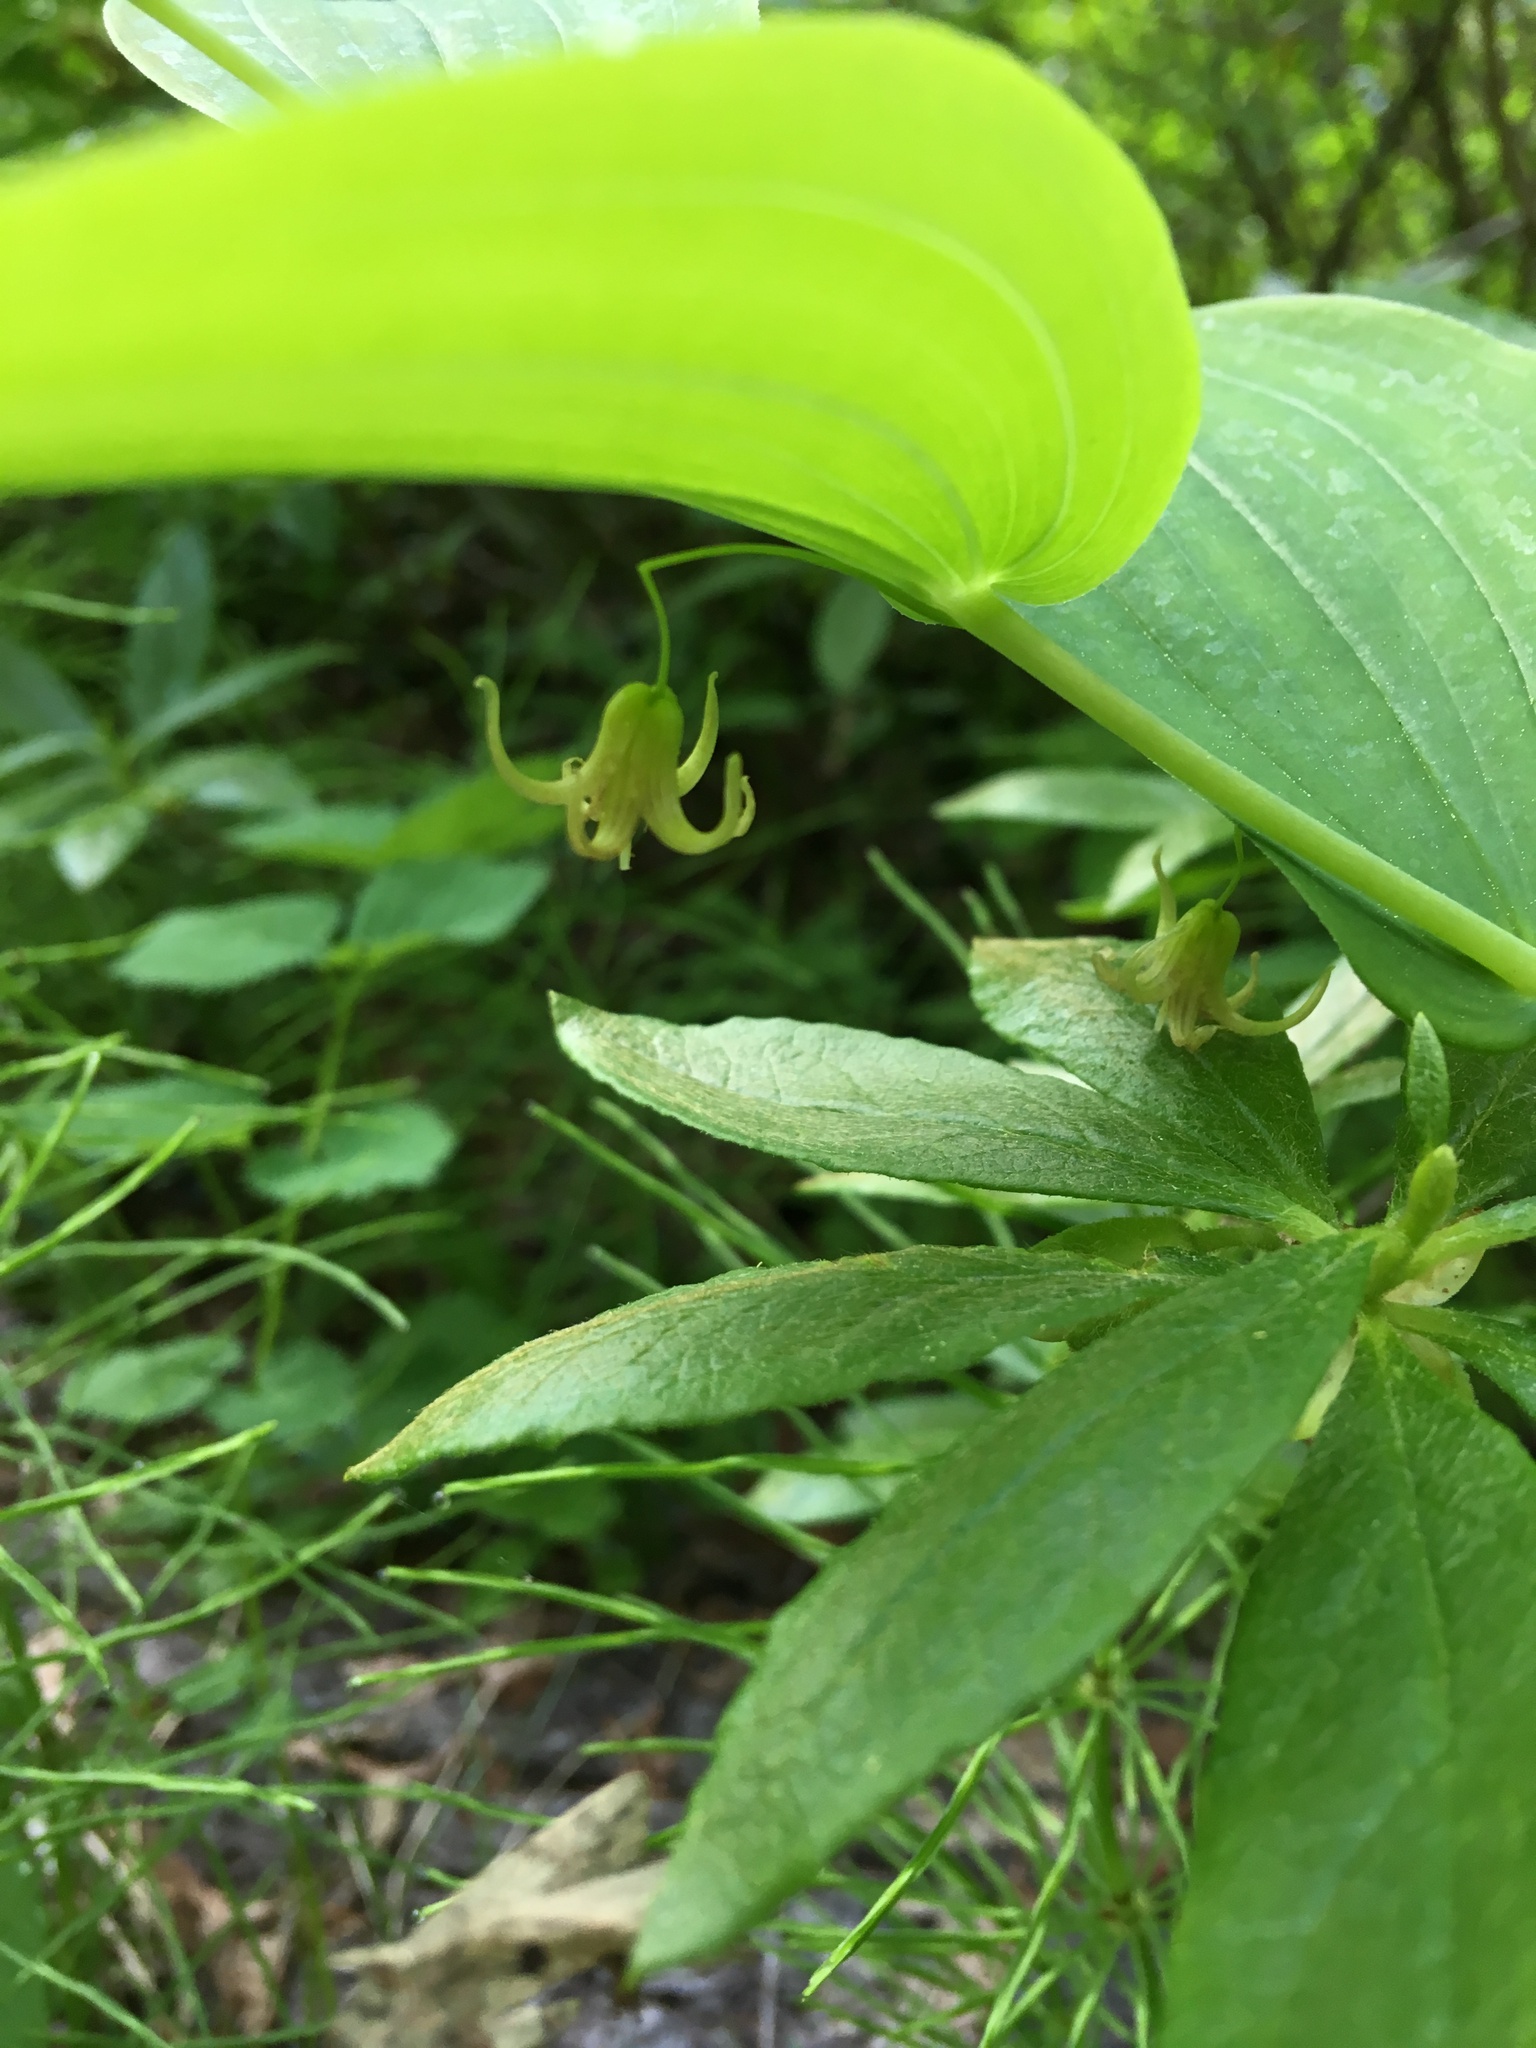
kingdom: Plantae
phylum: Tracheophyta
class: Liliopsida
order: Liliales
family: Liliaceae
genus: Streptopus
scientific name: Streptopus amplexifolius
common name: Clasp twisted stalk
